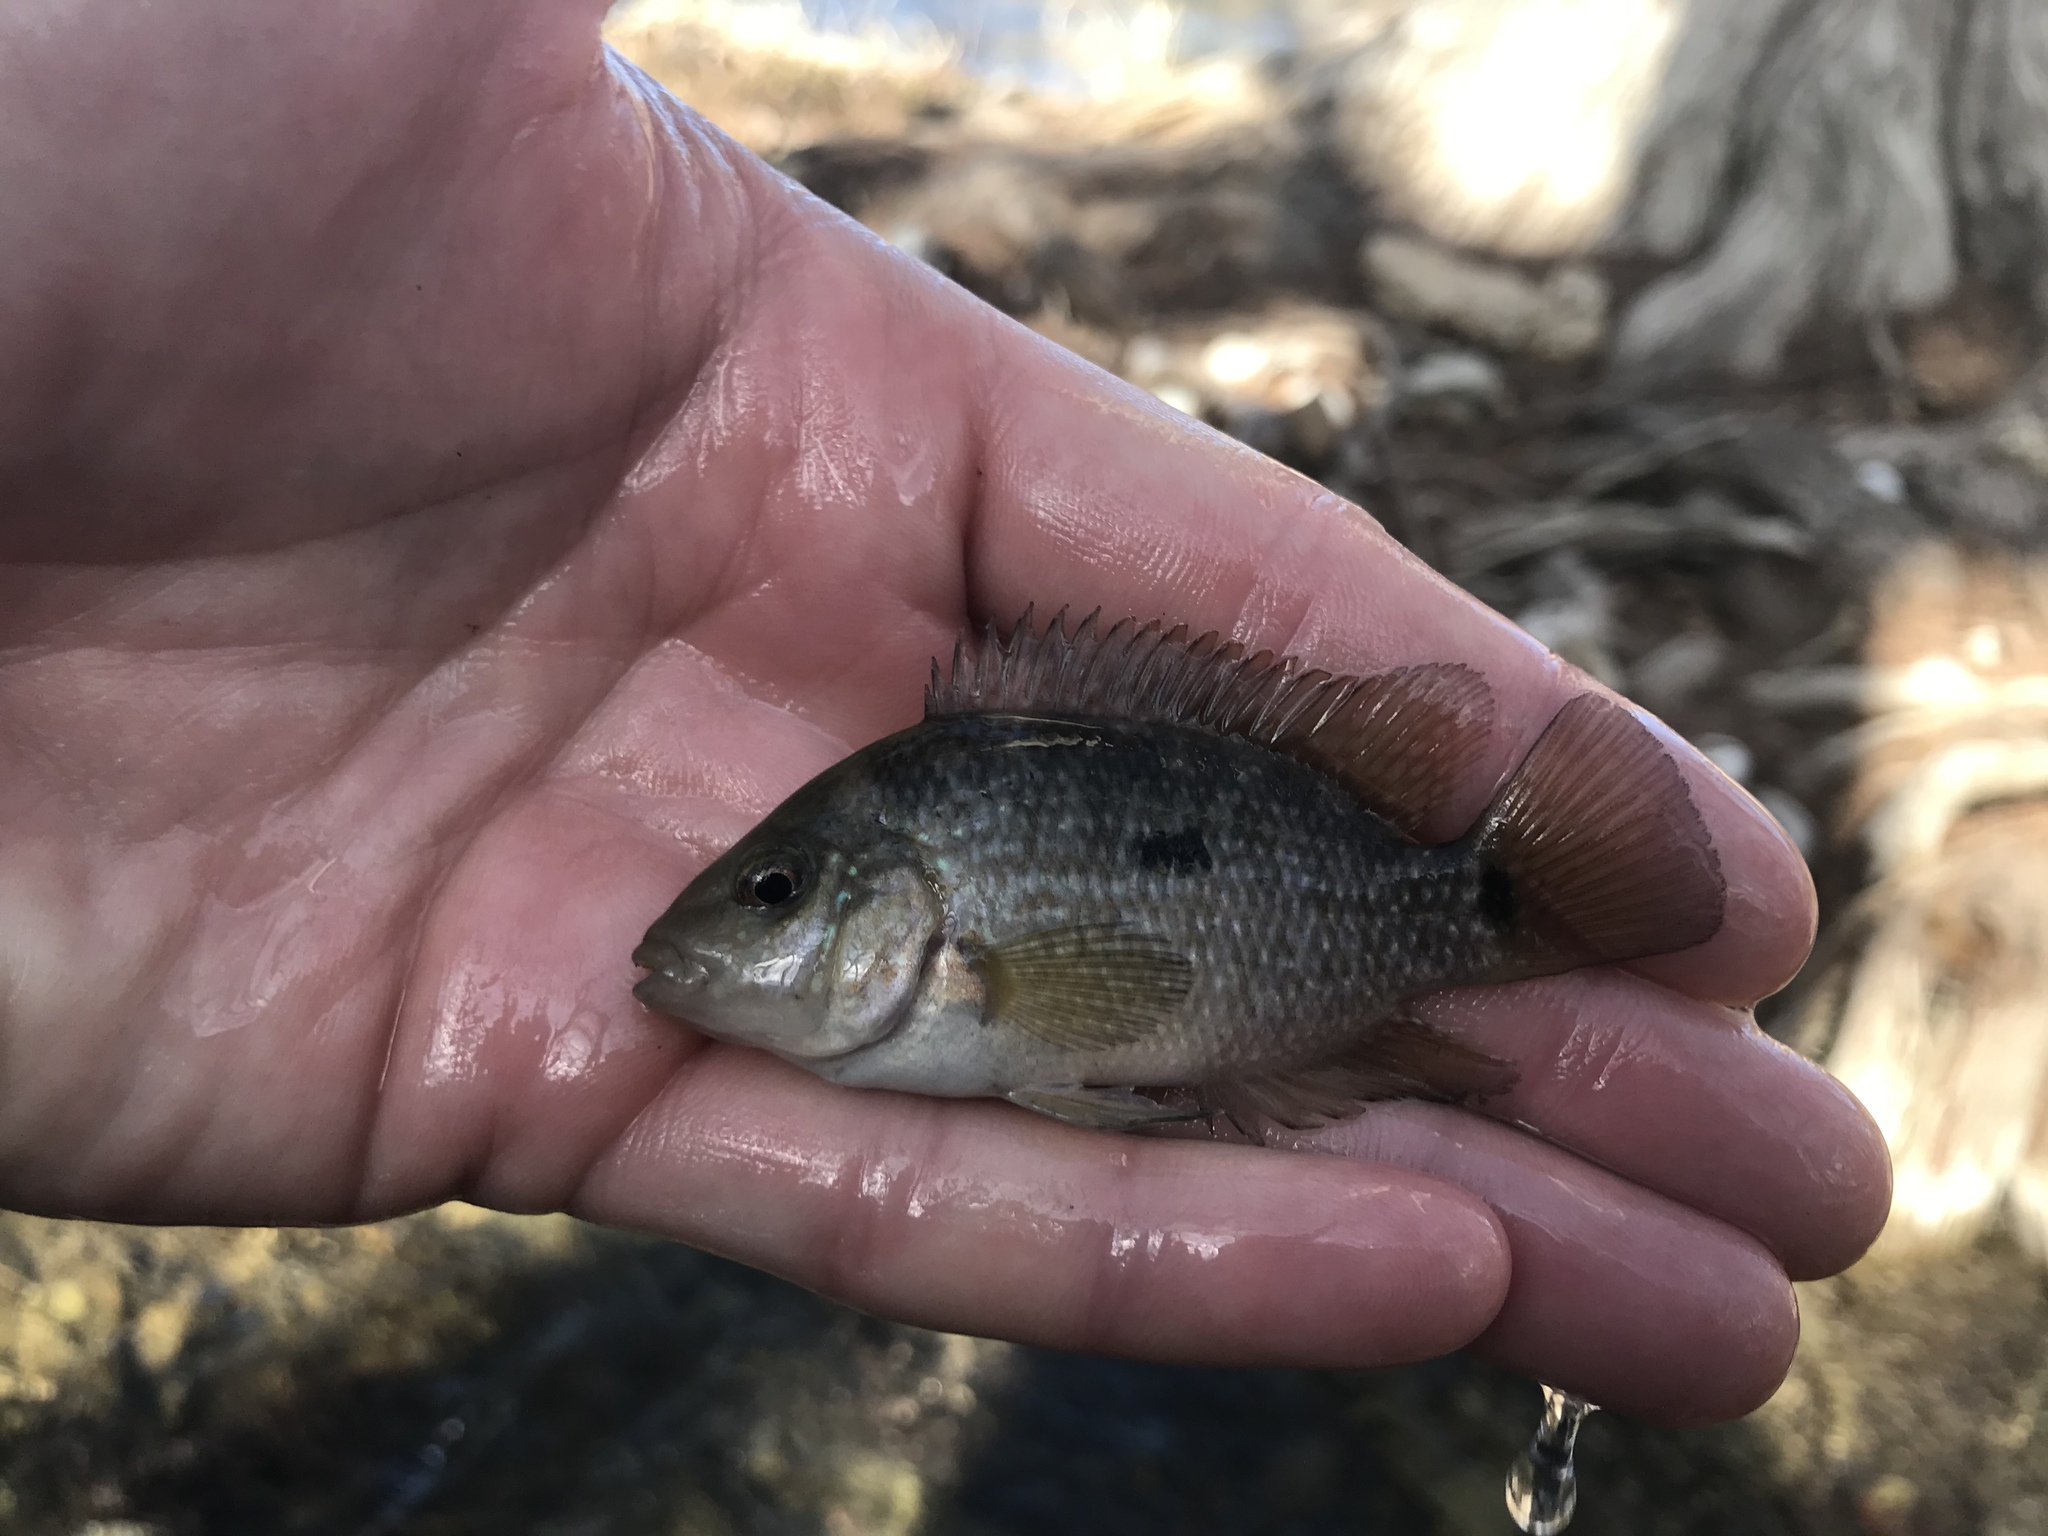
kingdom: Animalia
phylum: Chordata
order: Perciformes
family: Cichlidae
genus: Herichthys
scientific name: Herichthys cyanoguttatus
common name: Rio grande cichlid
